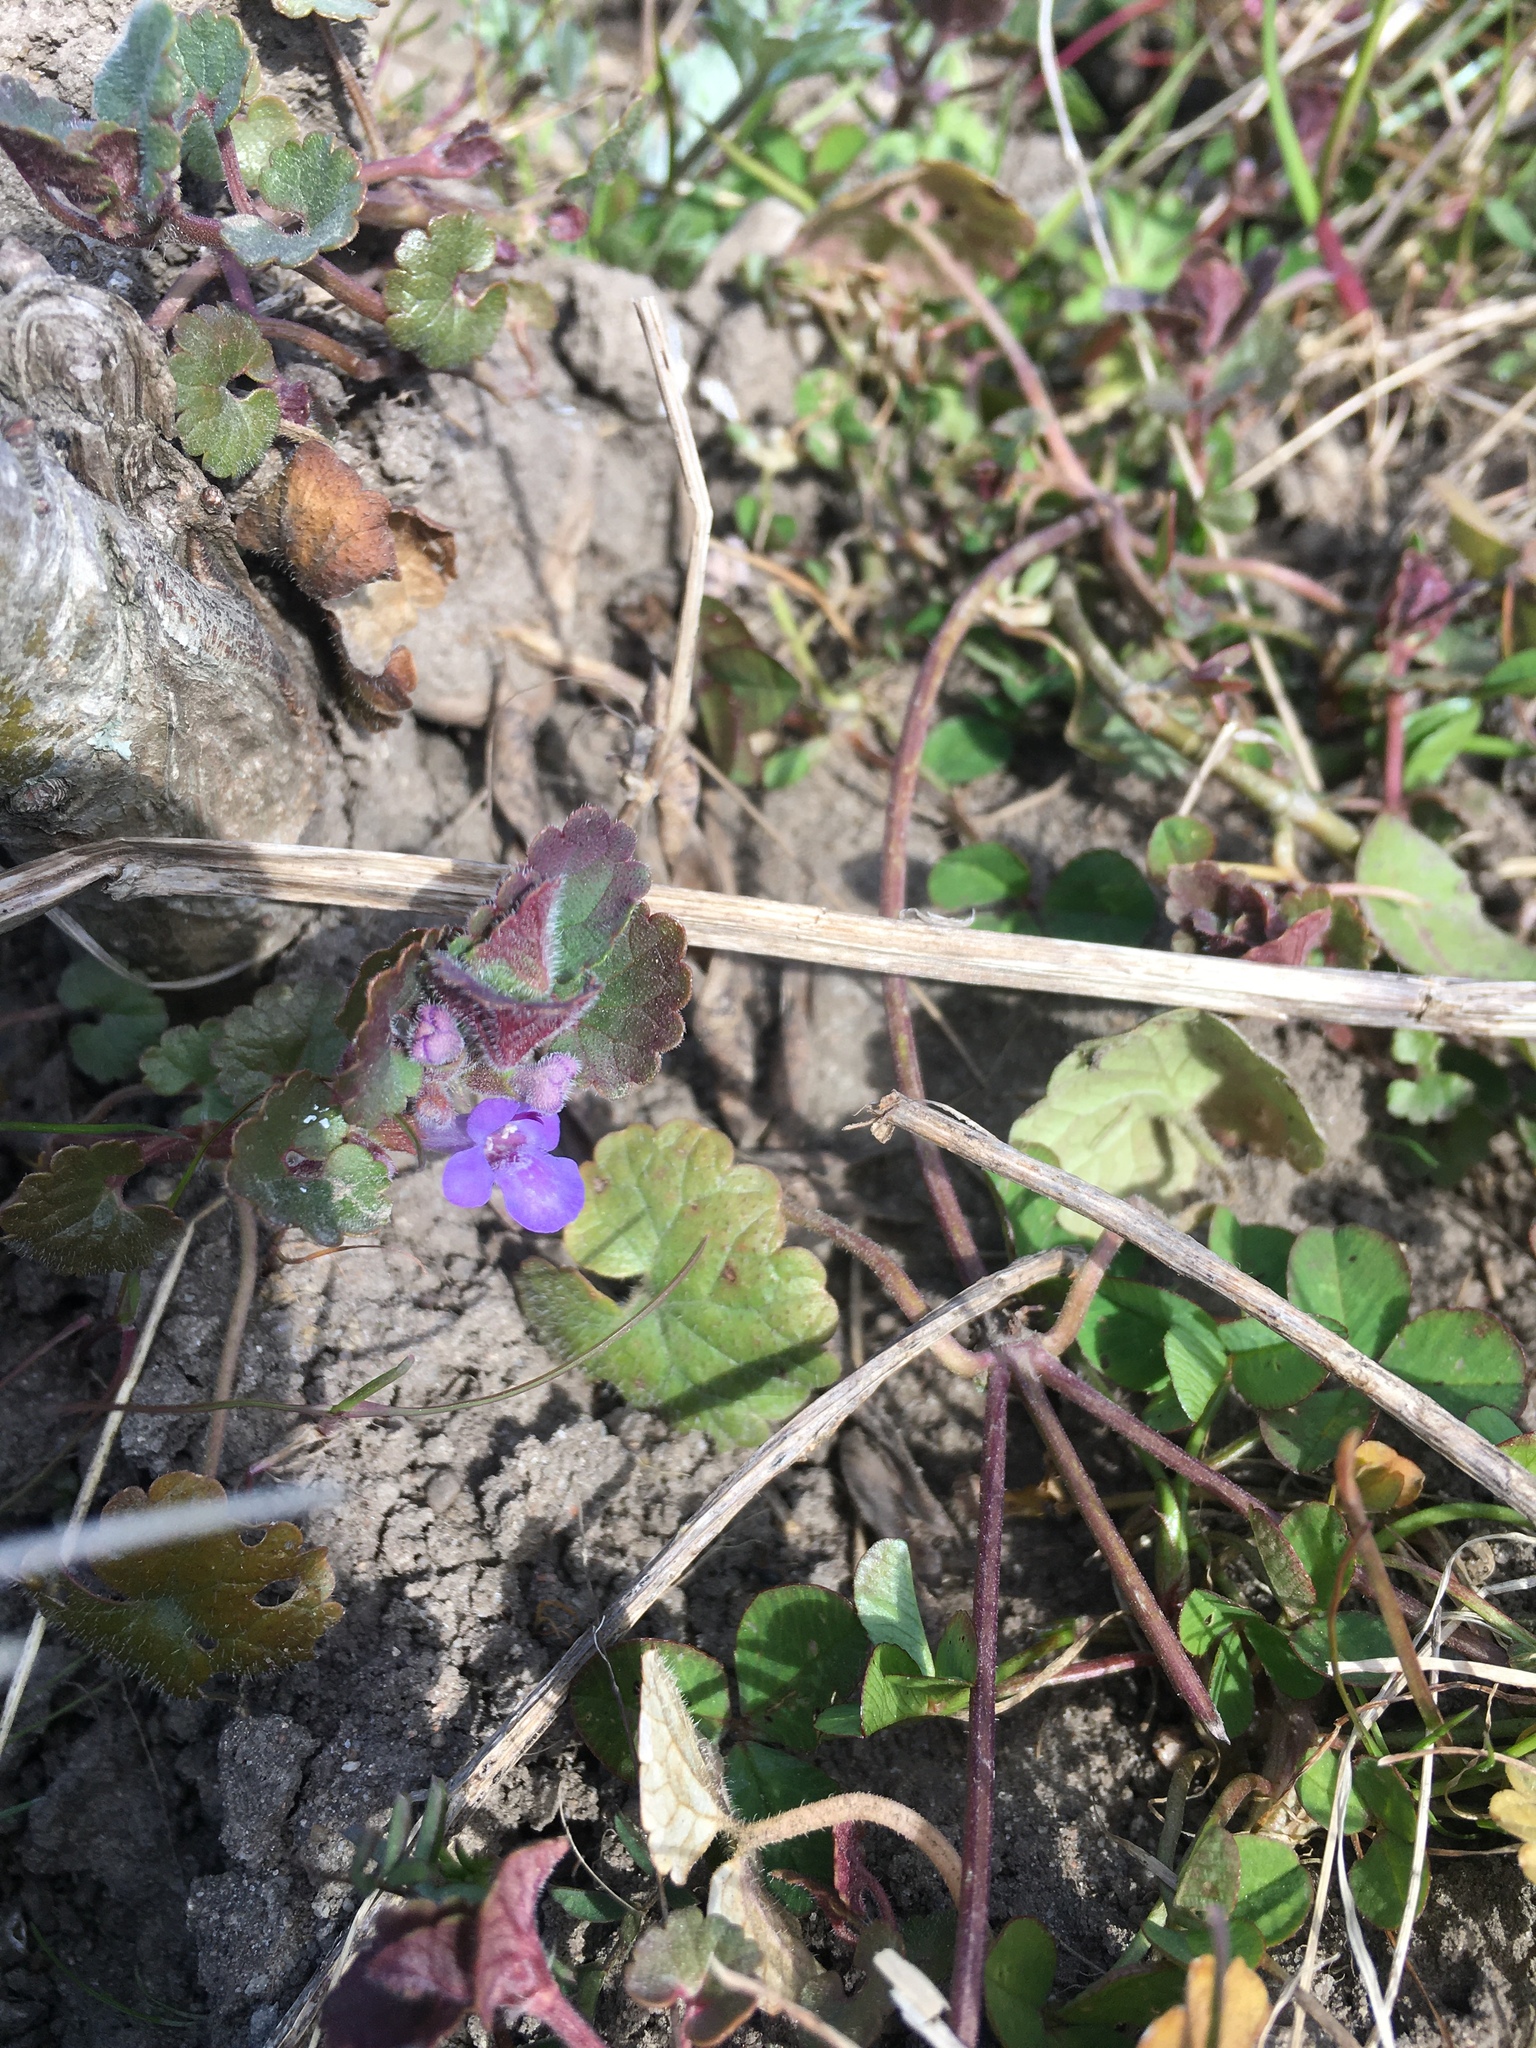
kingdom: Plantae
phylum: Tracheophyta
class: Magnoliopsida
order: Lamiales
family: Lamiaceae
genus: Glechoma
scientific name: Glechoma hederacea
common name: Ground ivy
